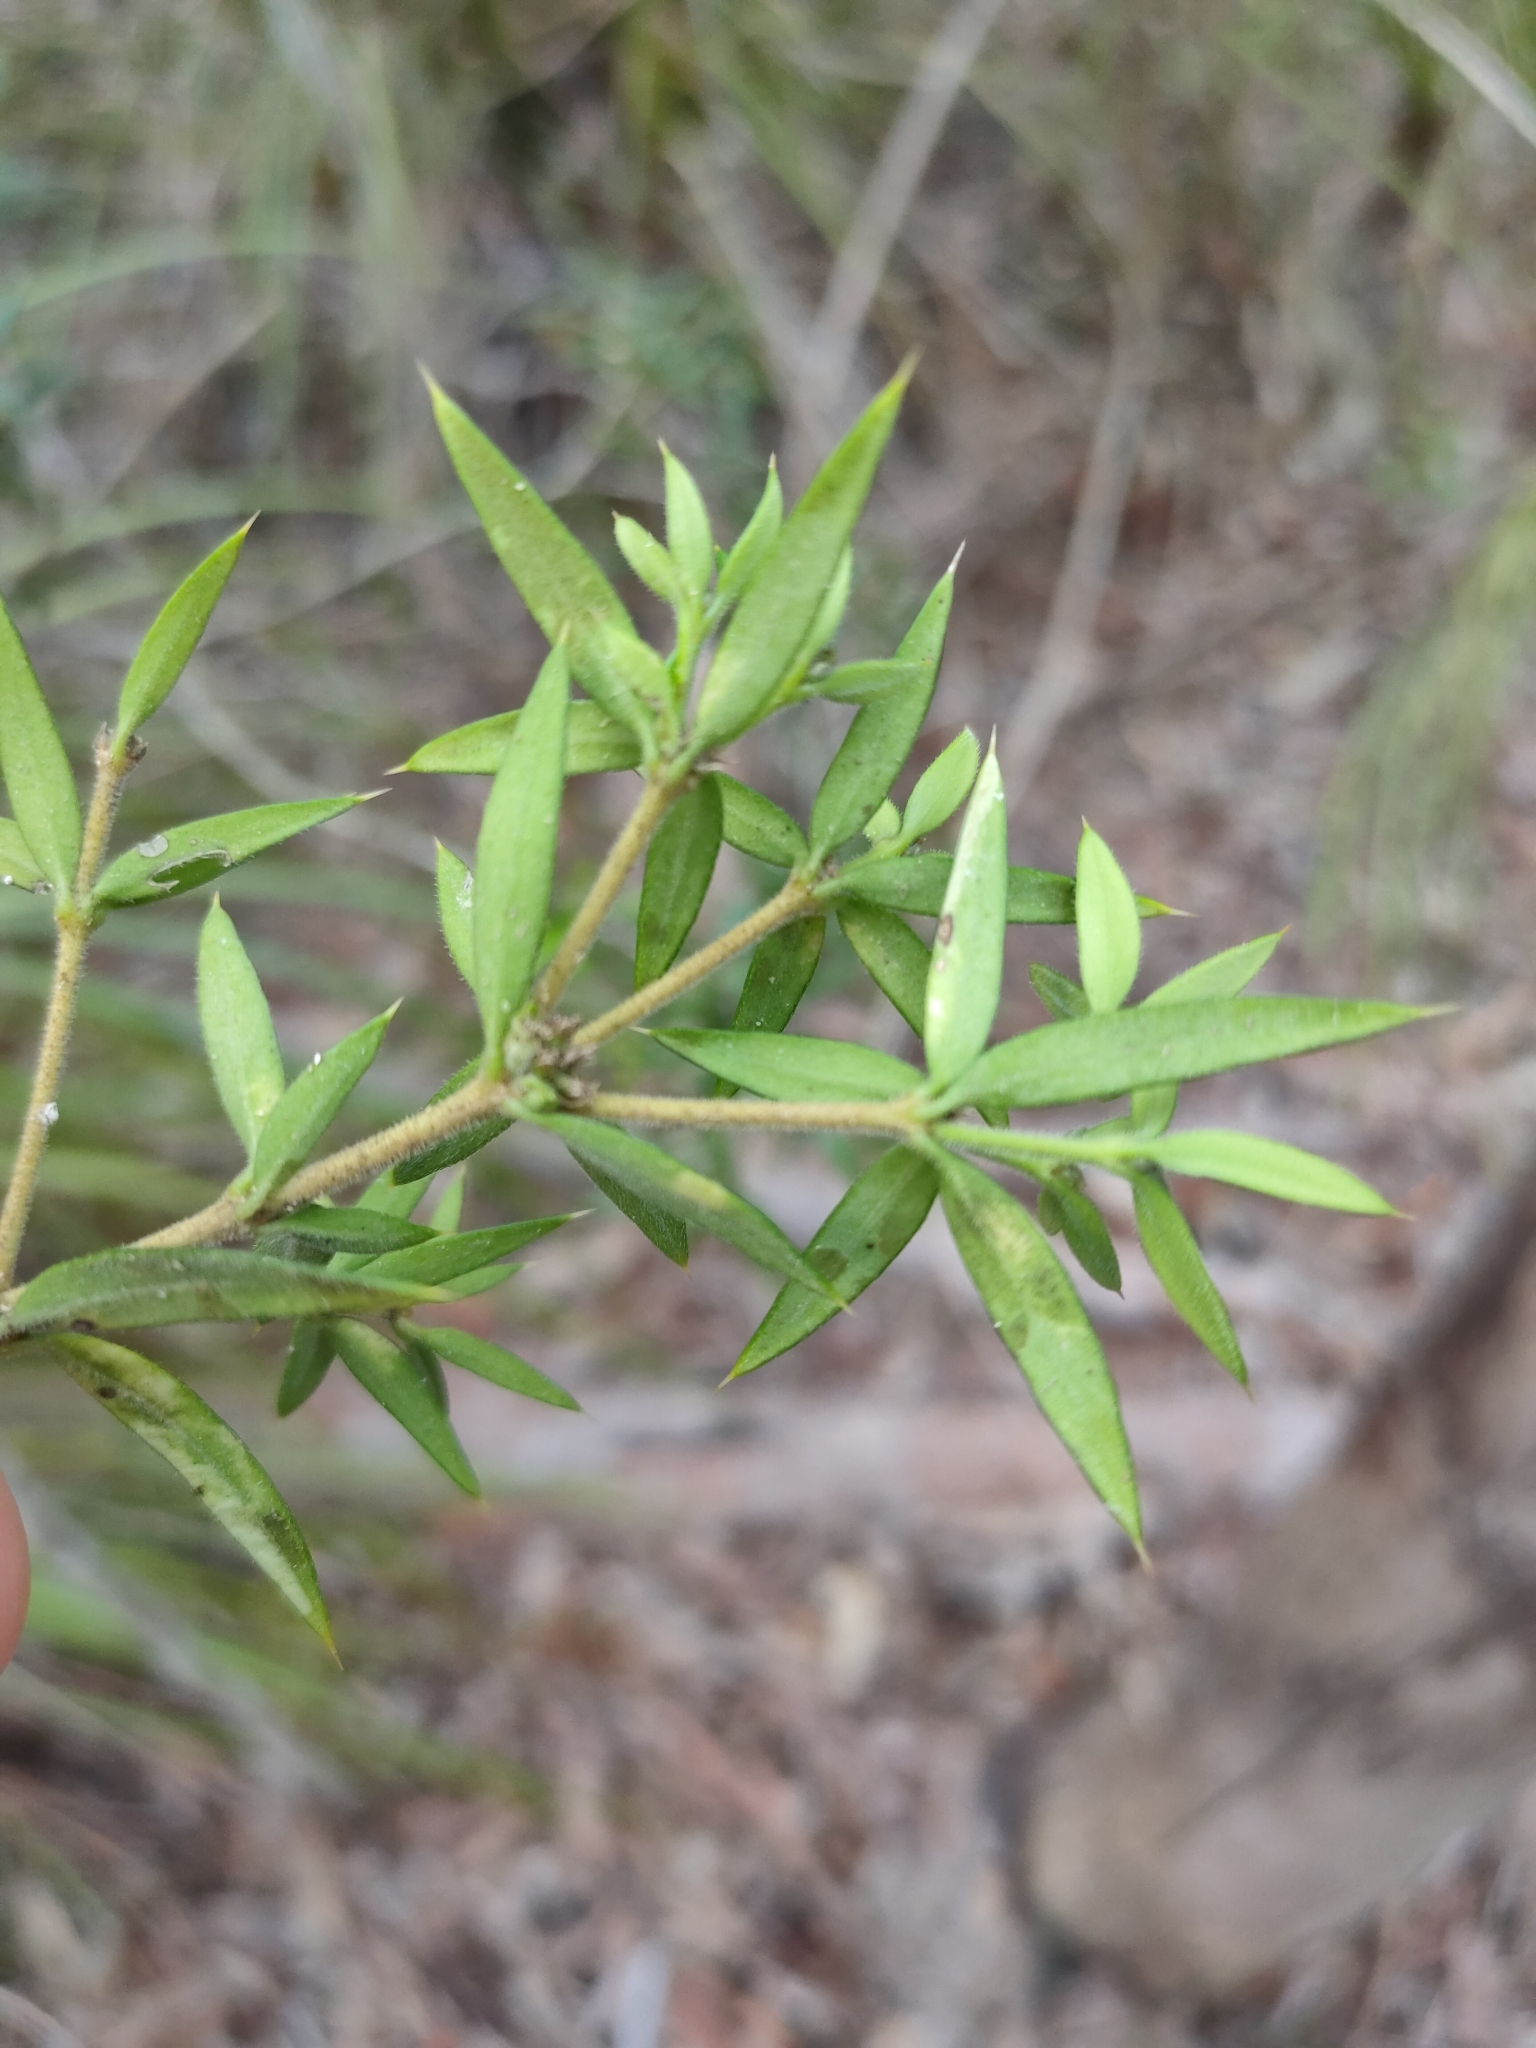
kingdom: Plantae
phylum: Tracheophyta
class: Magnoliopsida
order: Gentianales
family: Apocynaceae
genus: Alyxia
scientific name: Alyxia ruscifolia
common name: Chainfruit
